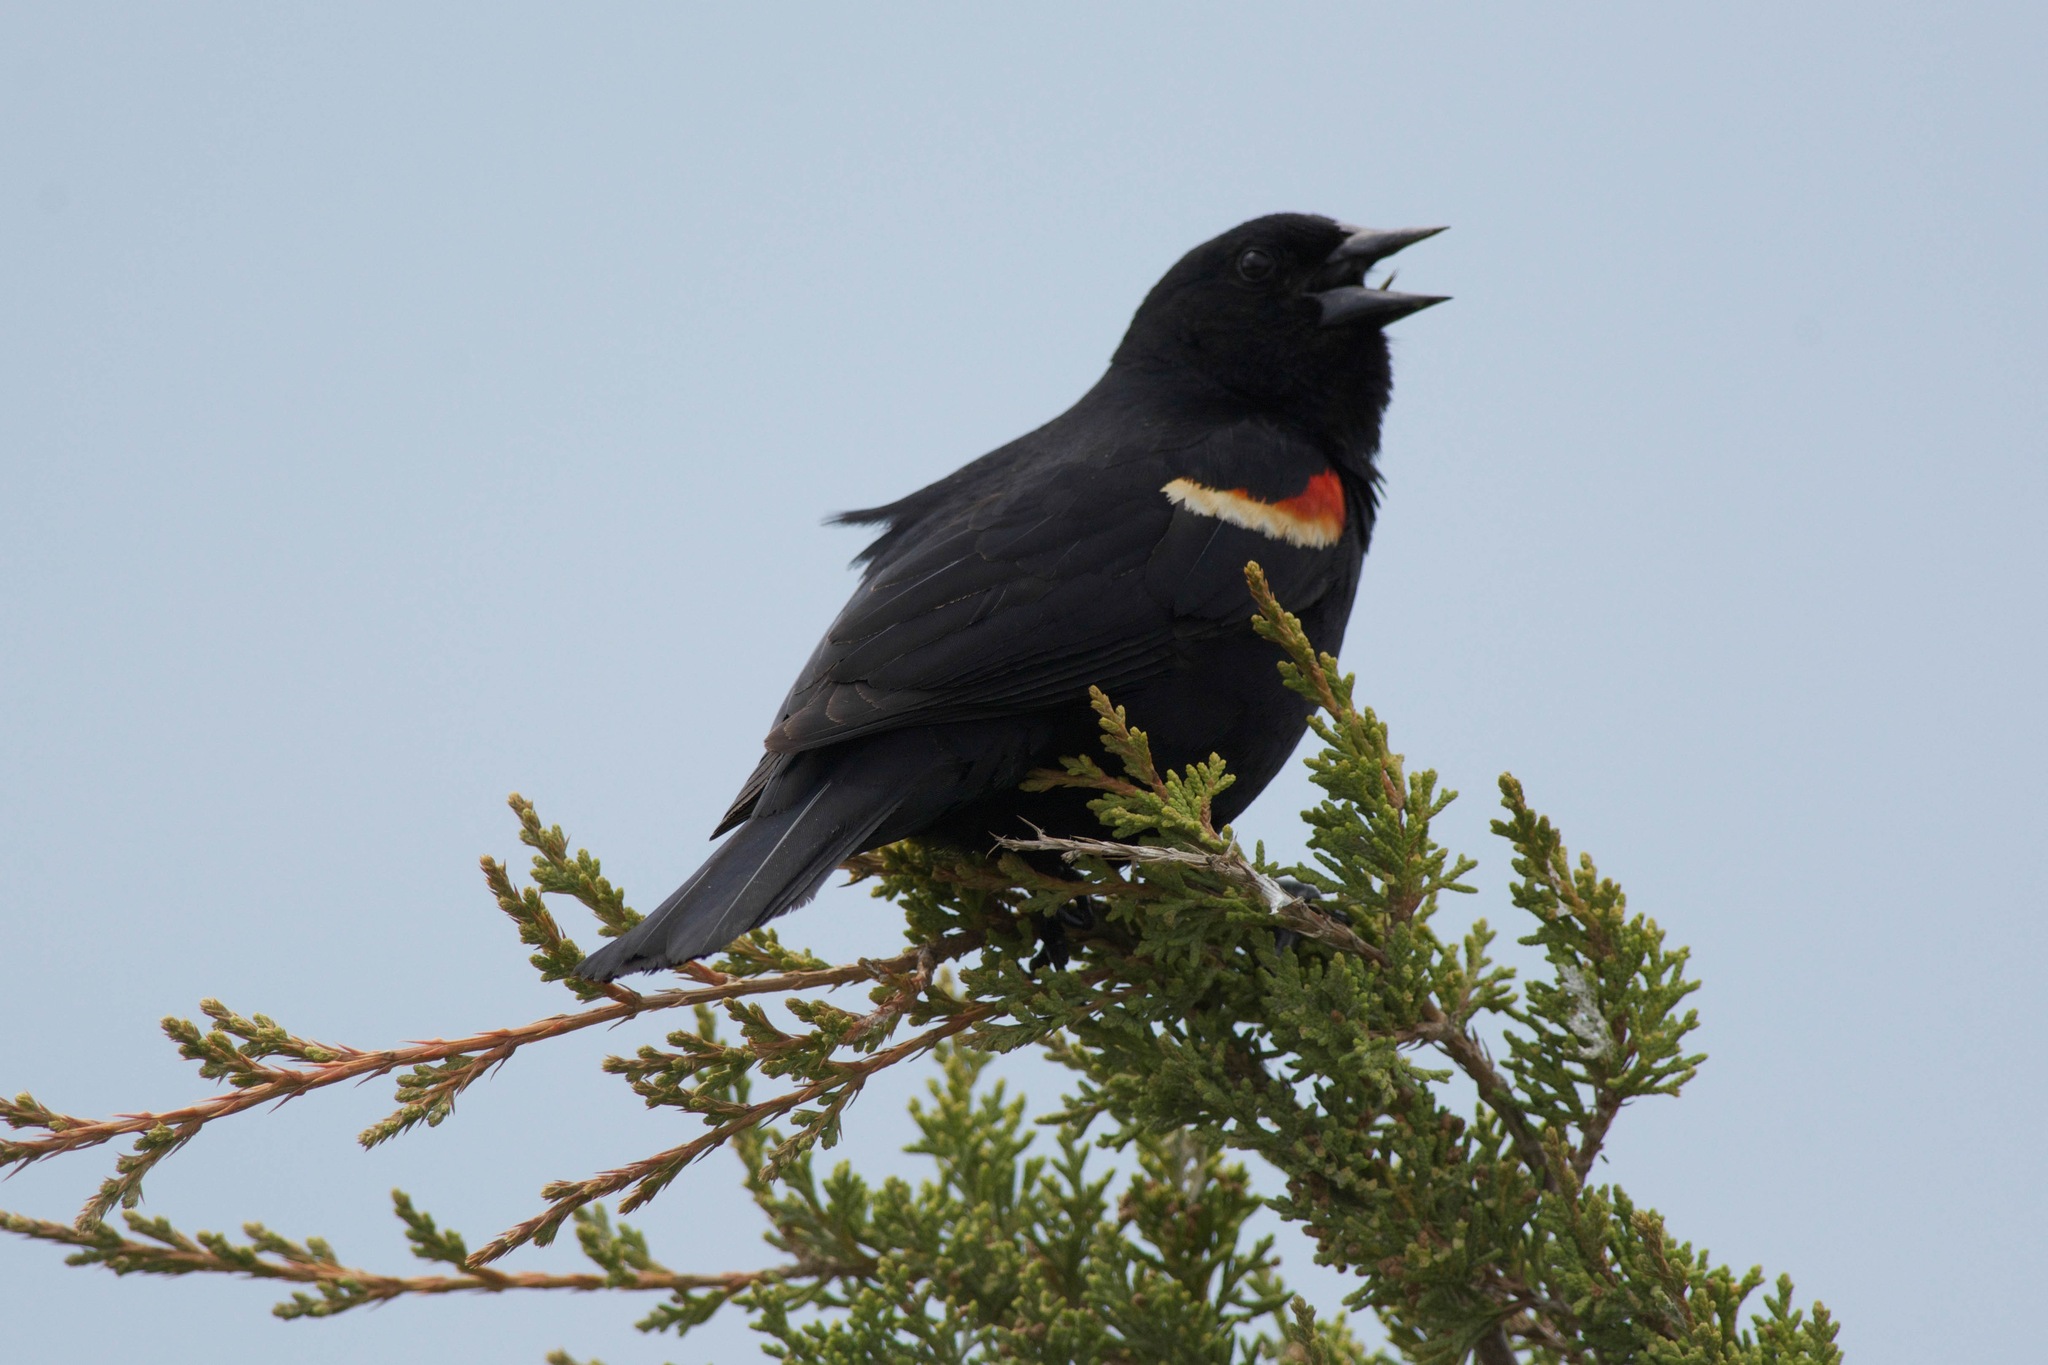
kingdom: Animalia
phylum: Chordata
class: Aves
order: Passeriformes
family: Icteridae
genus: Agelaius
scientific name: Agelaius phoeniceus
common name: Red-winged blackbird
